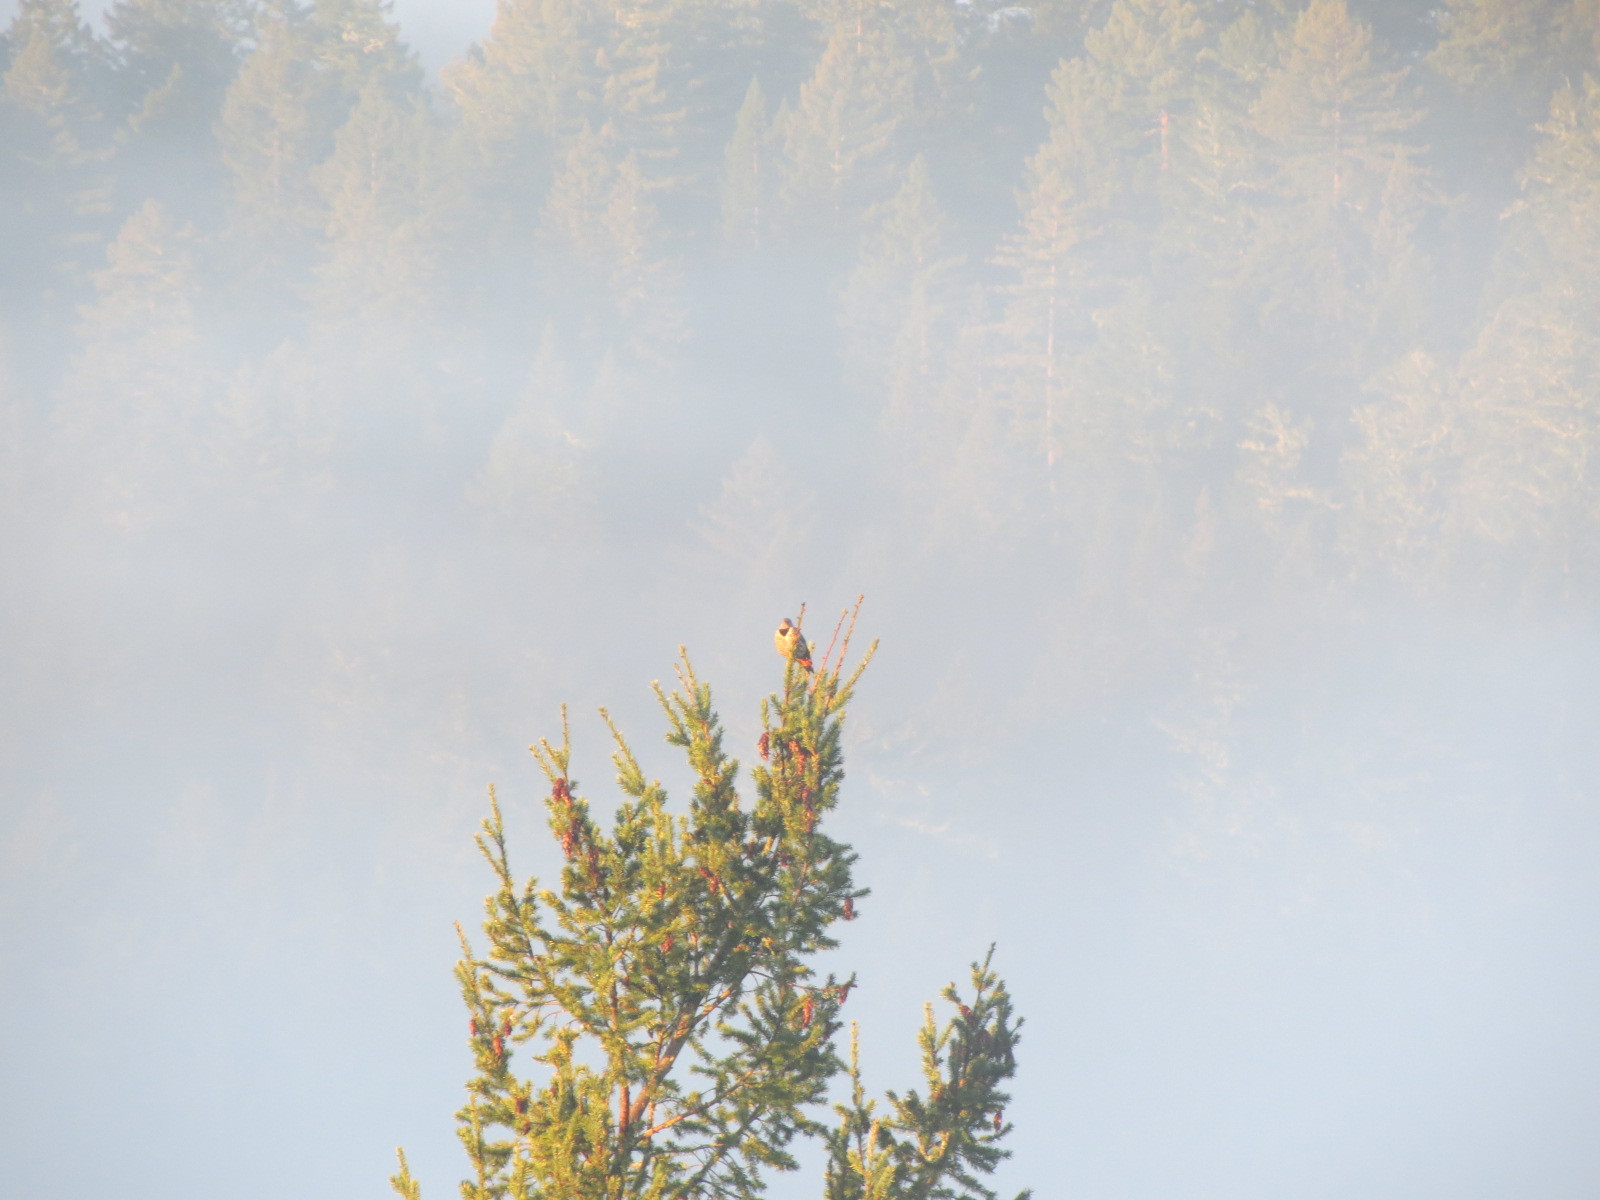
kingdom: Animalia
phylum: Chordata
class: Aves
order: Piciformes
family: Picidae
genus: Colaptes
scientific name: Colaptes auratus
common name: Northern flicker
